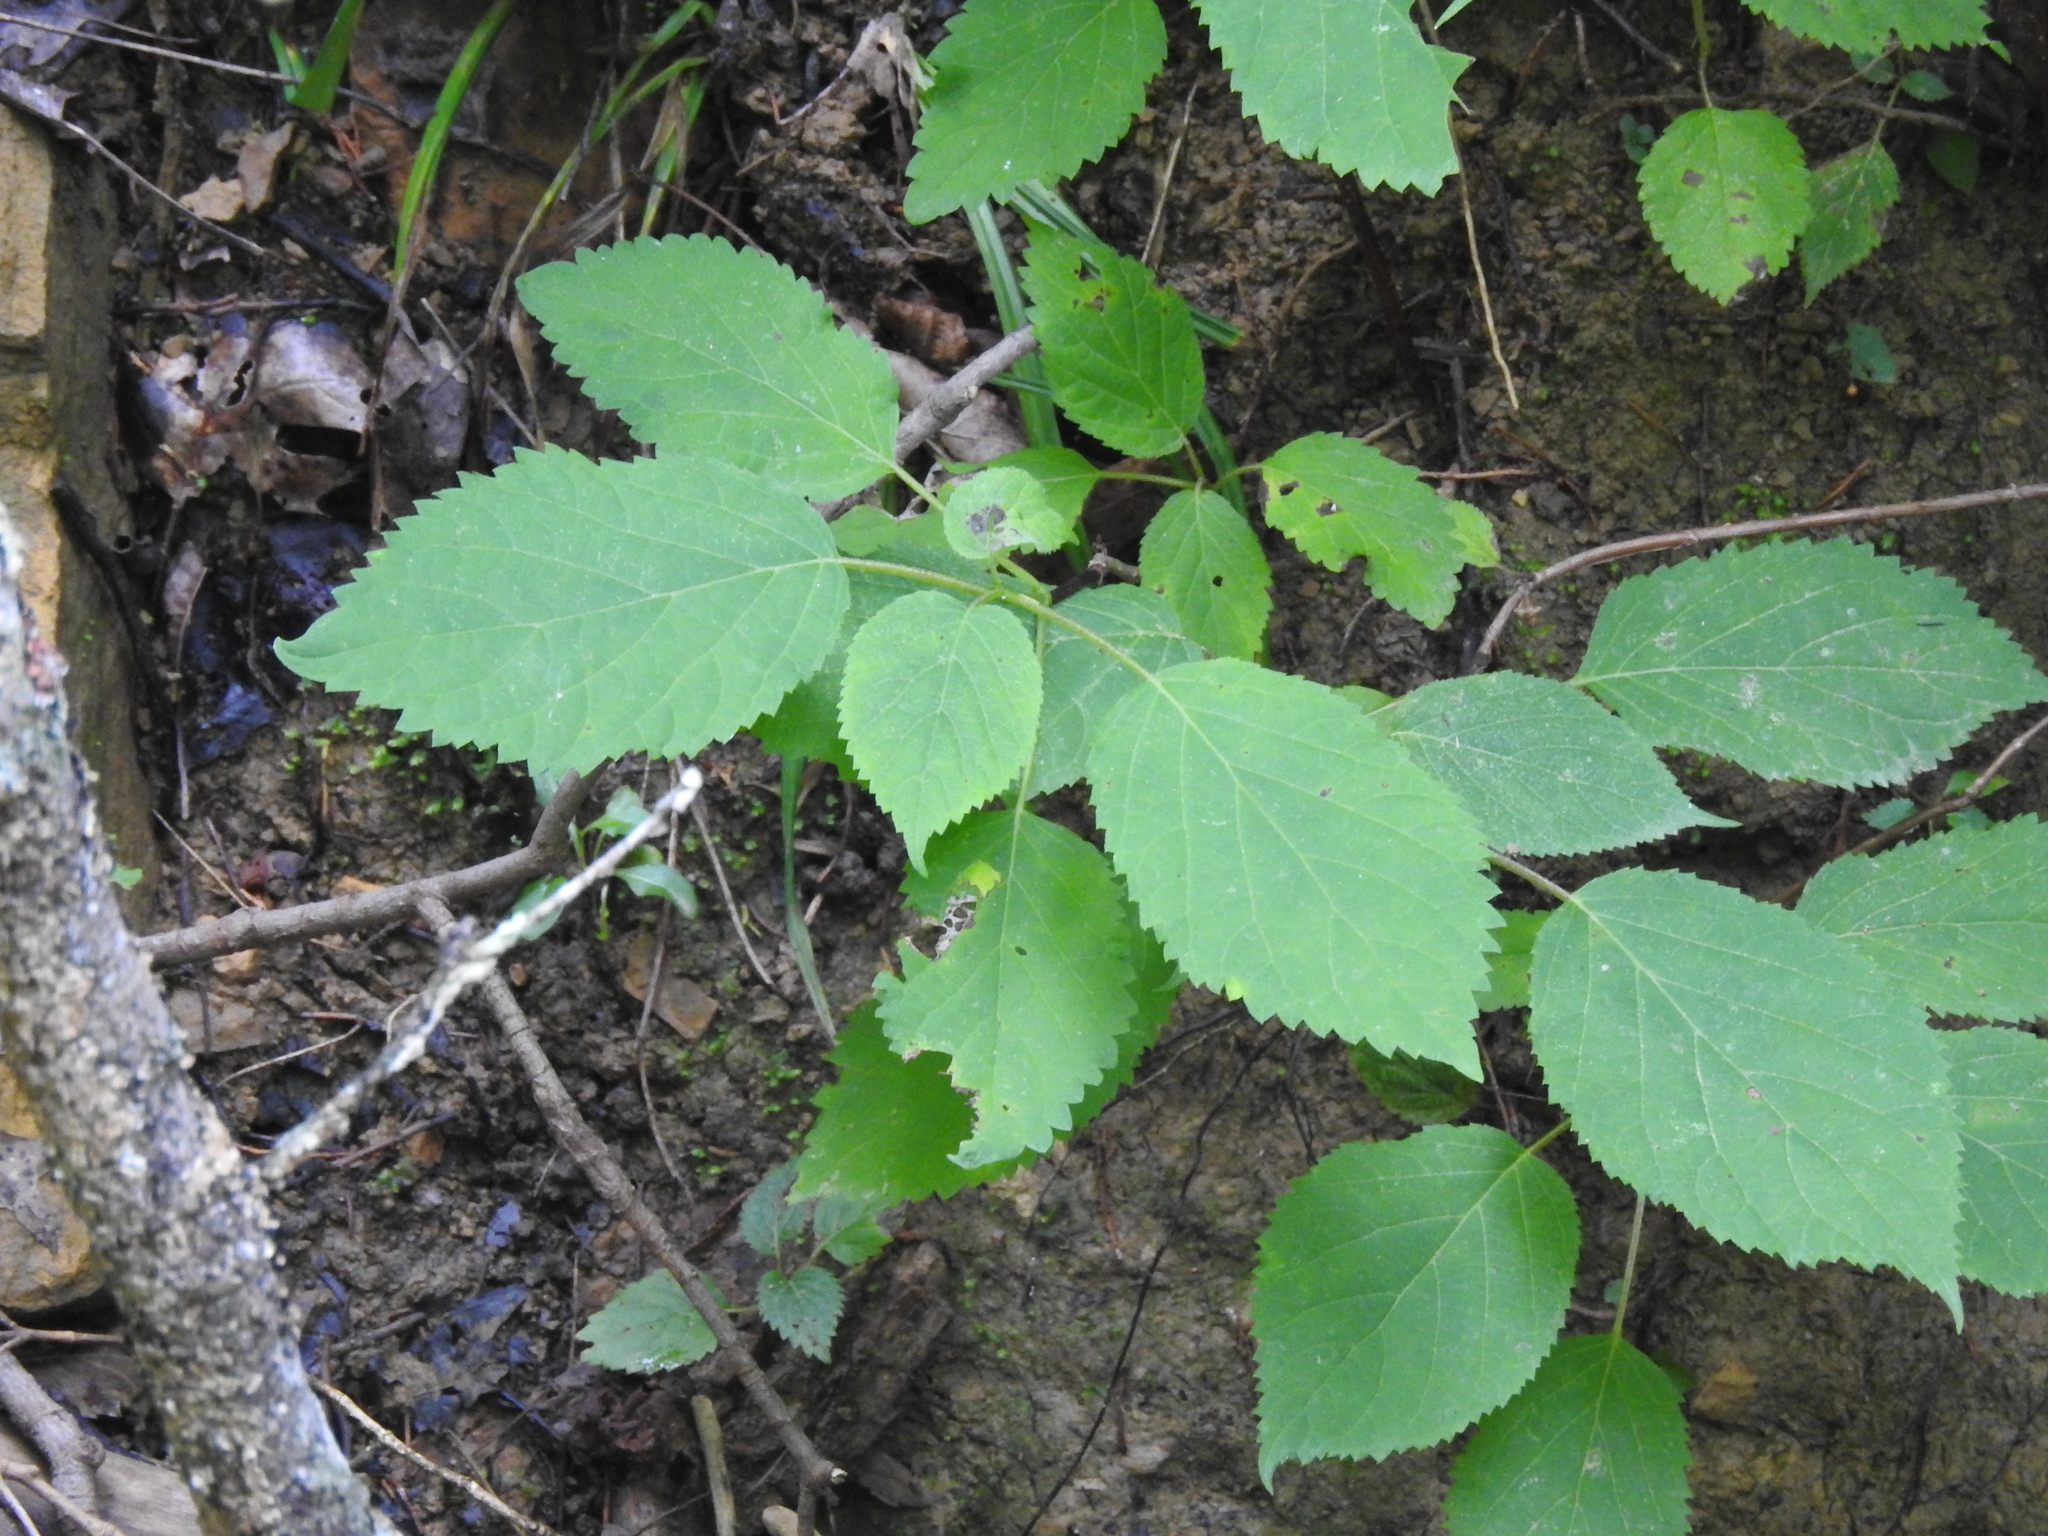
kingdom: Plantae
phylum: Tracheophyta
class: Magnoliopsida
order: Cornales
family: Hydrangeaceae
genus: Hydrangea
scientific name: Hydrangea arborescens
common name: Sevenbark
